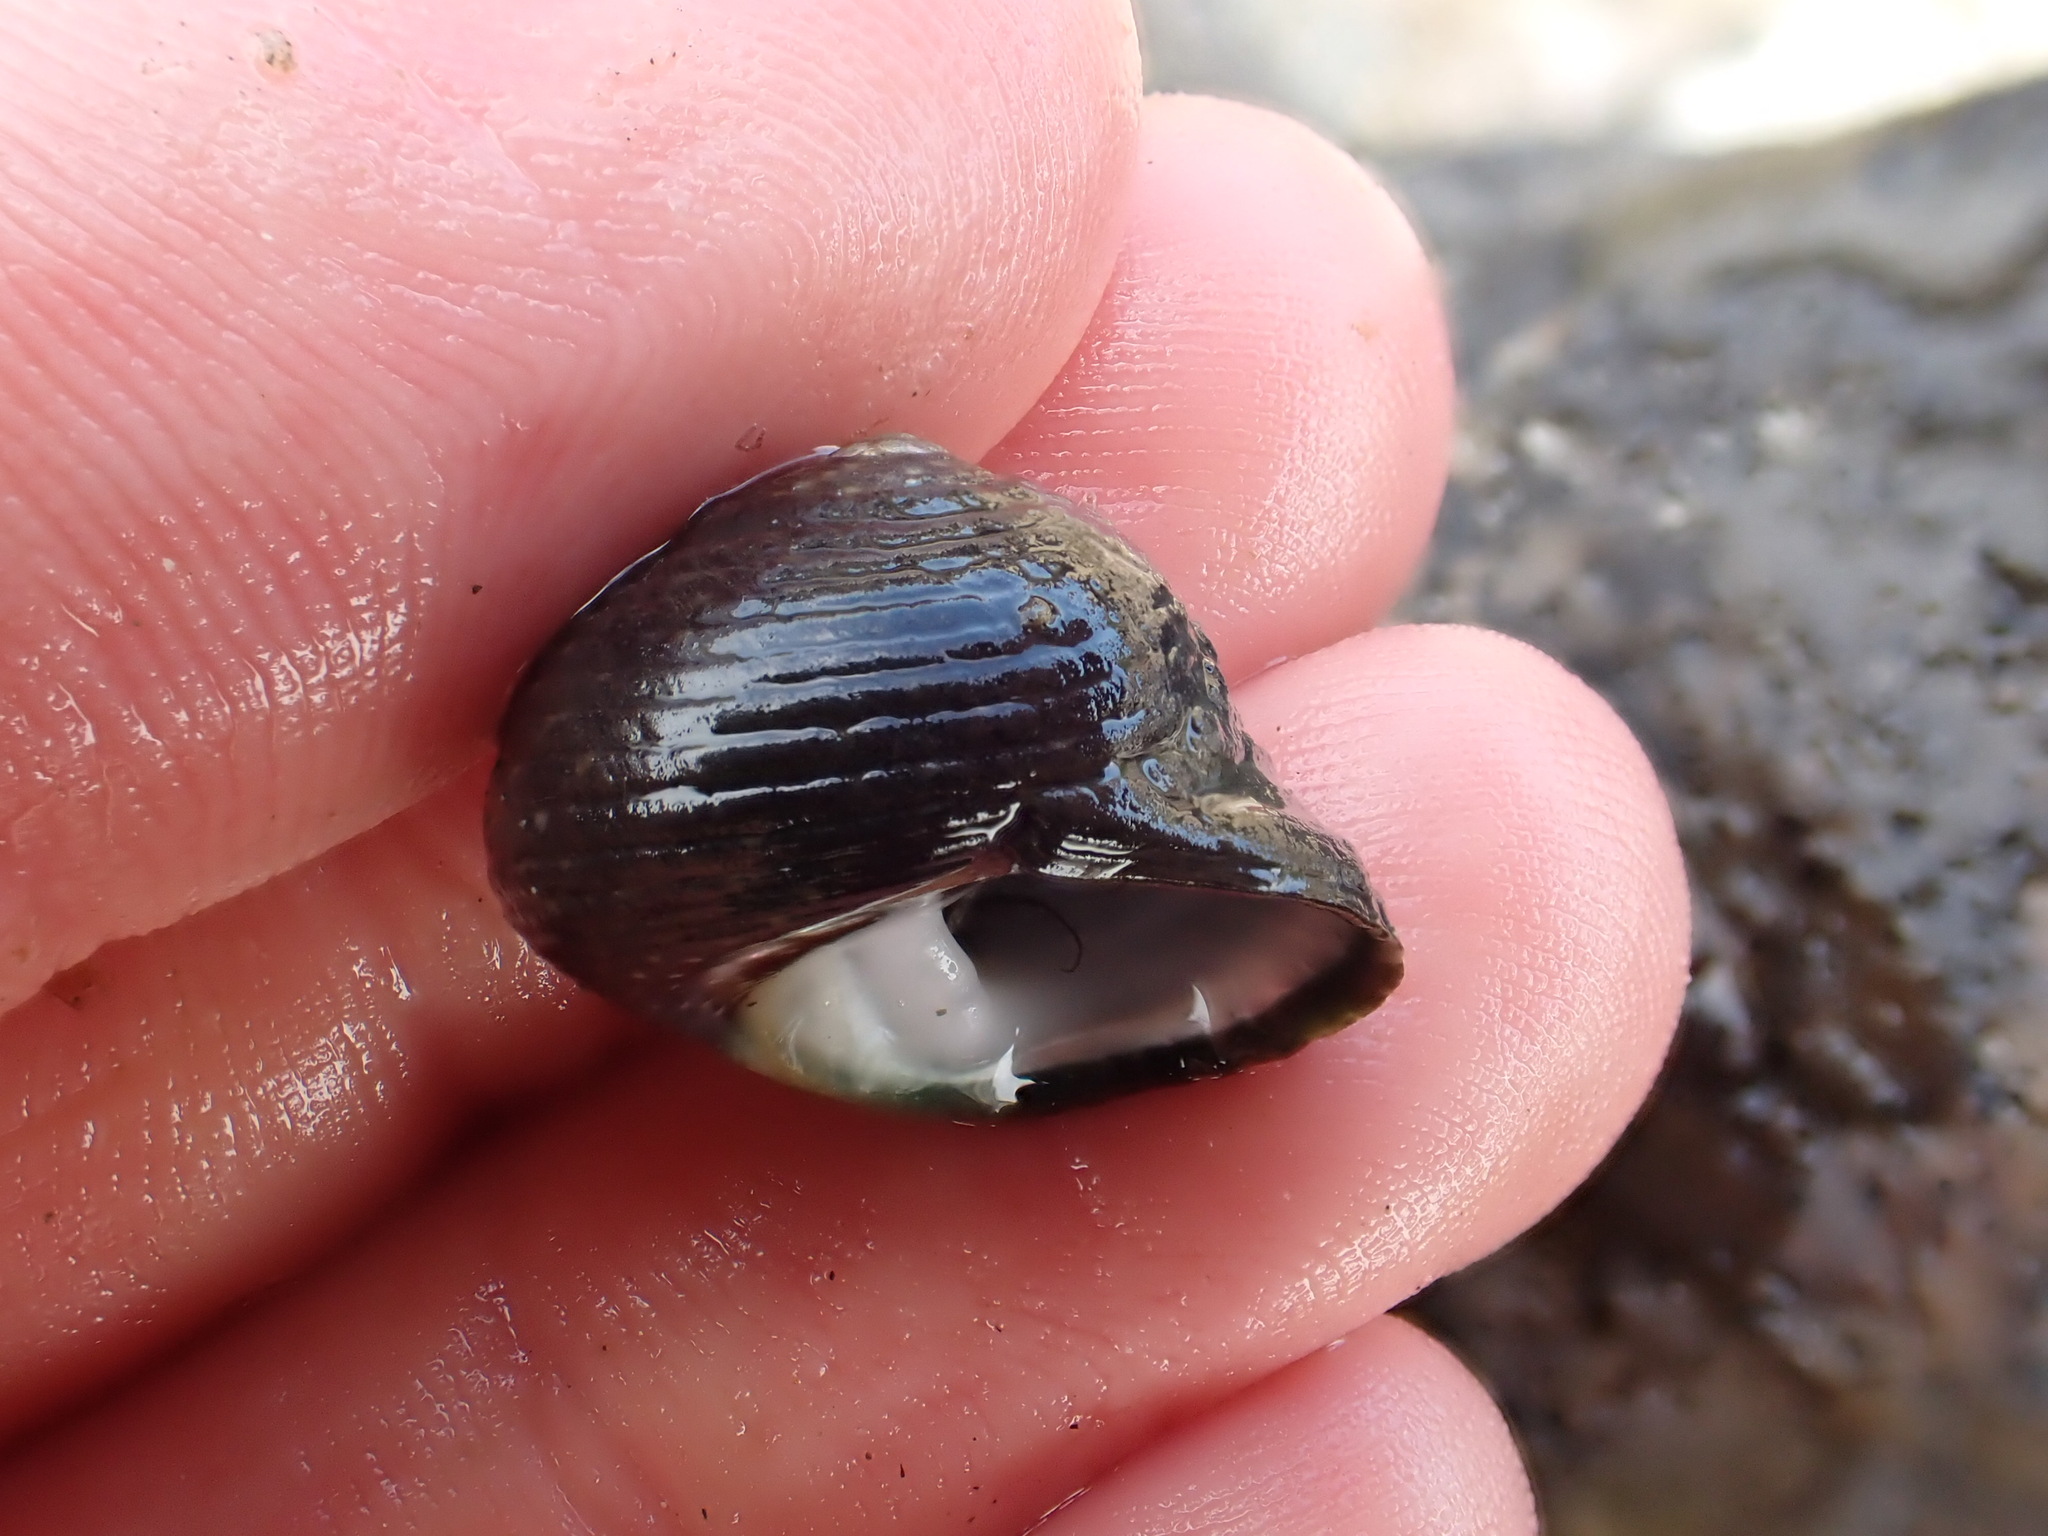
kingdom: Animalia
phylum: Mollusca
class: Gastropoda
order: Trochida
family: Trochidae
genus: Diloma
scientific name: Diloma zelandicum
